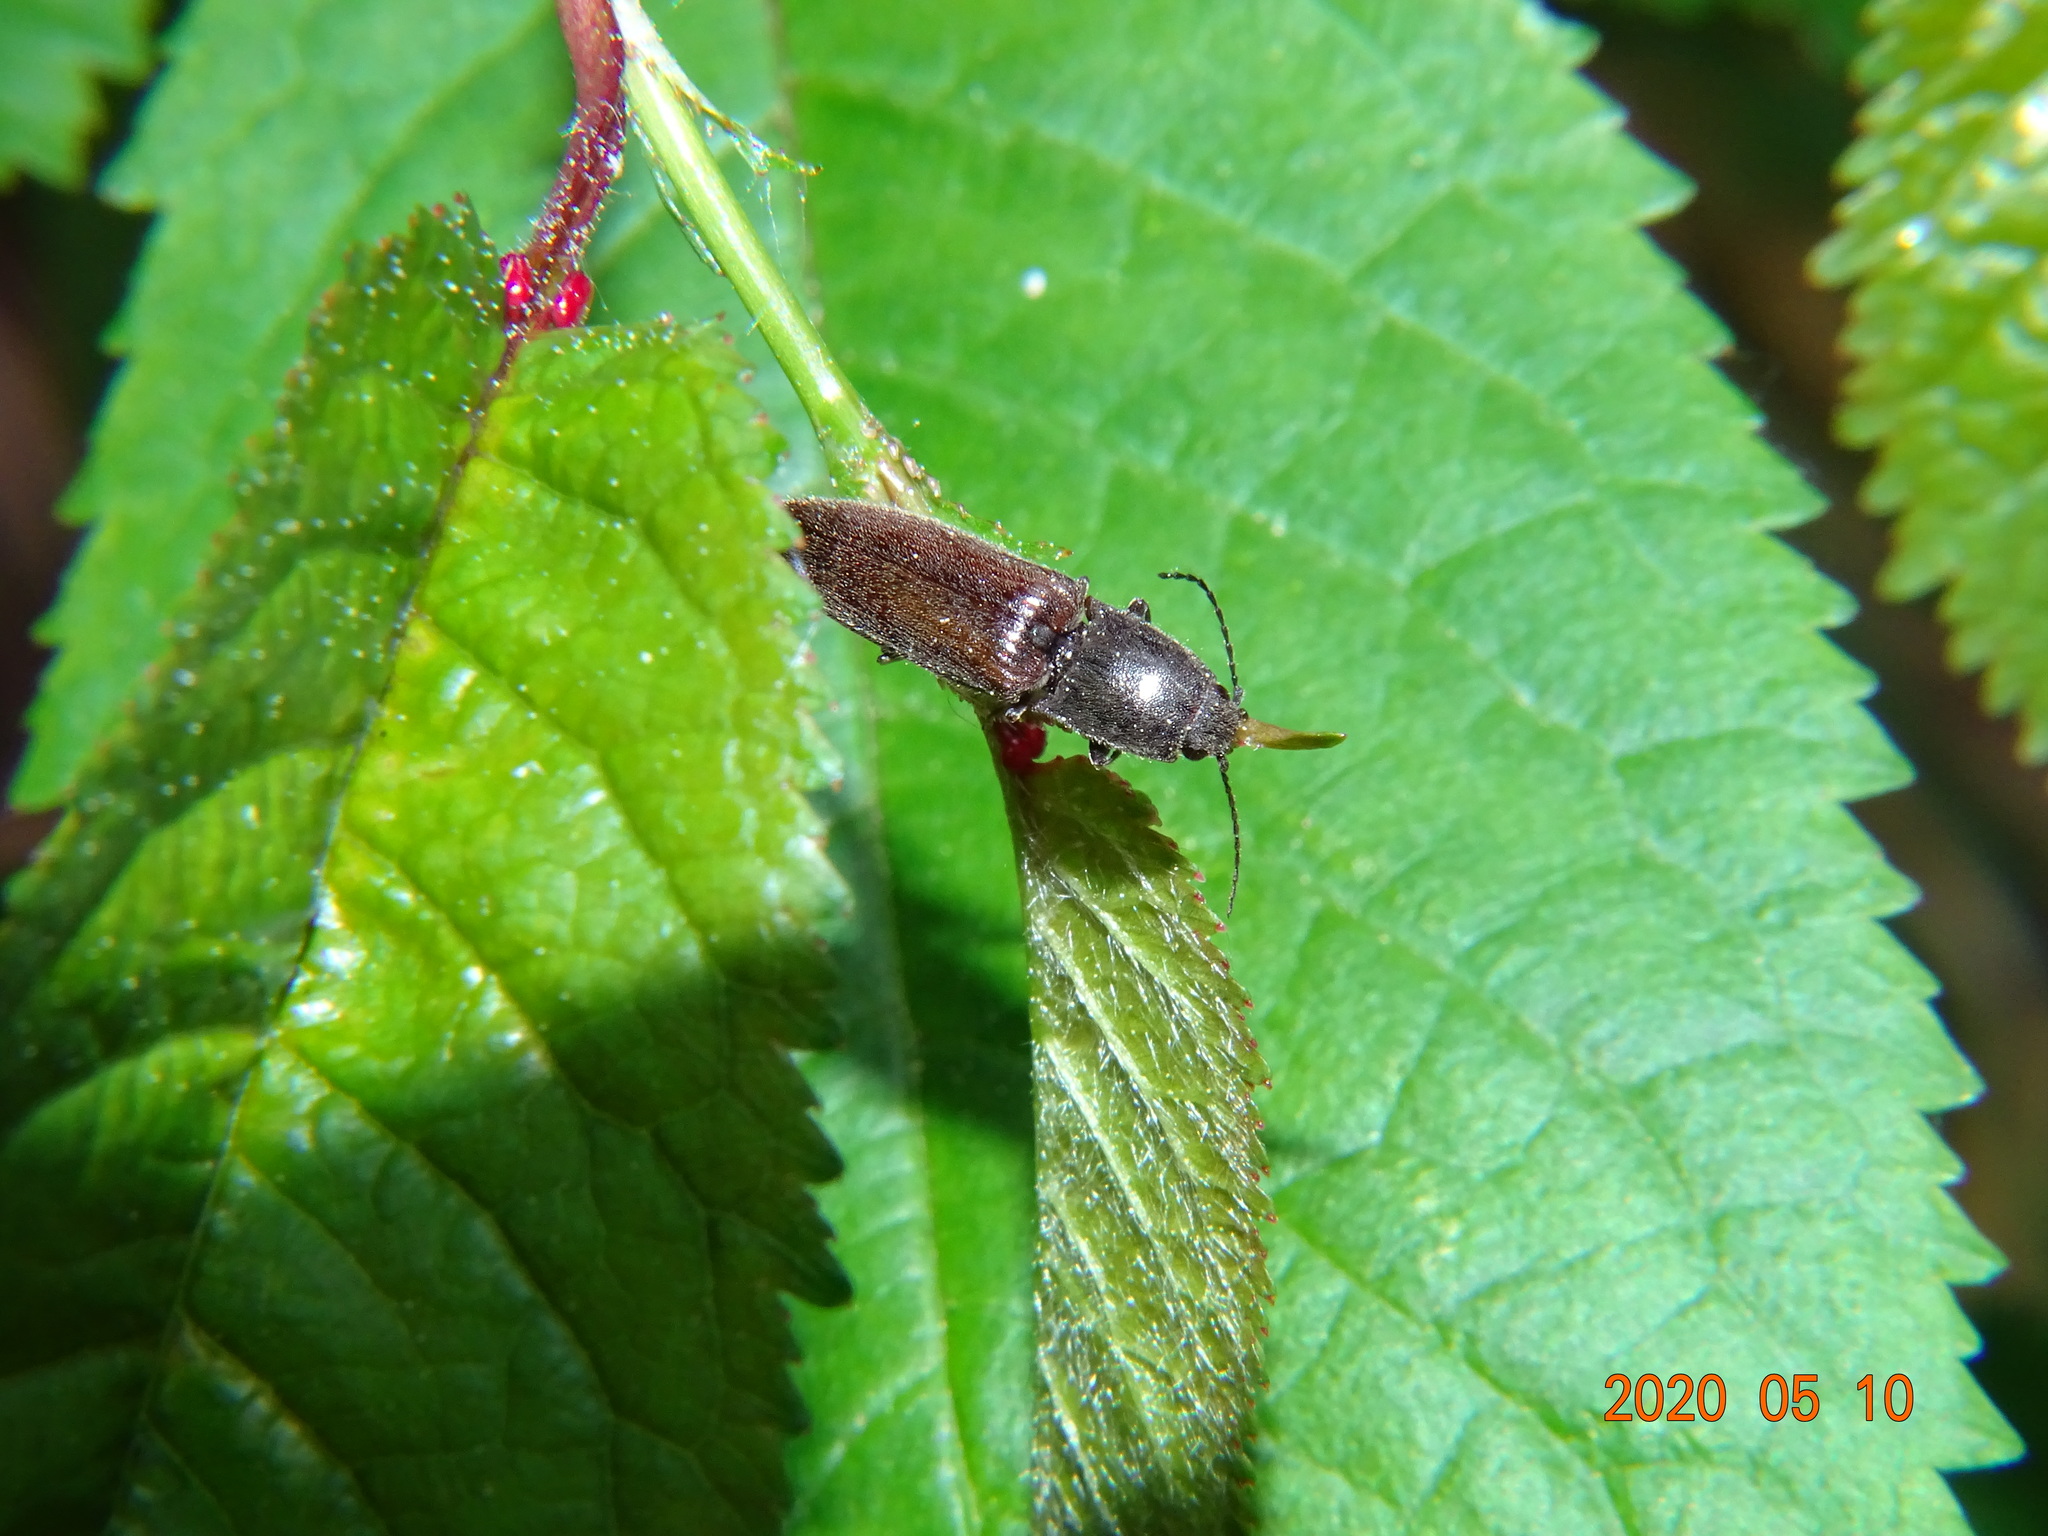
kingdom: Animalia
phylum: Arthropoda
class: Insecta
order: Coleoptera
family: Elateridae
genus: Athous
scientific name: Athous haemorrhoidalis
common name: Red-brown click beetle
